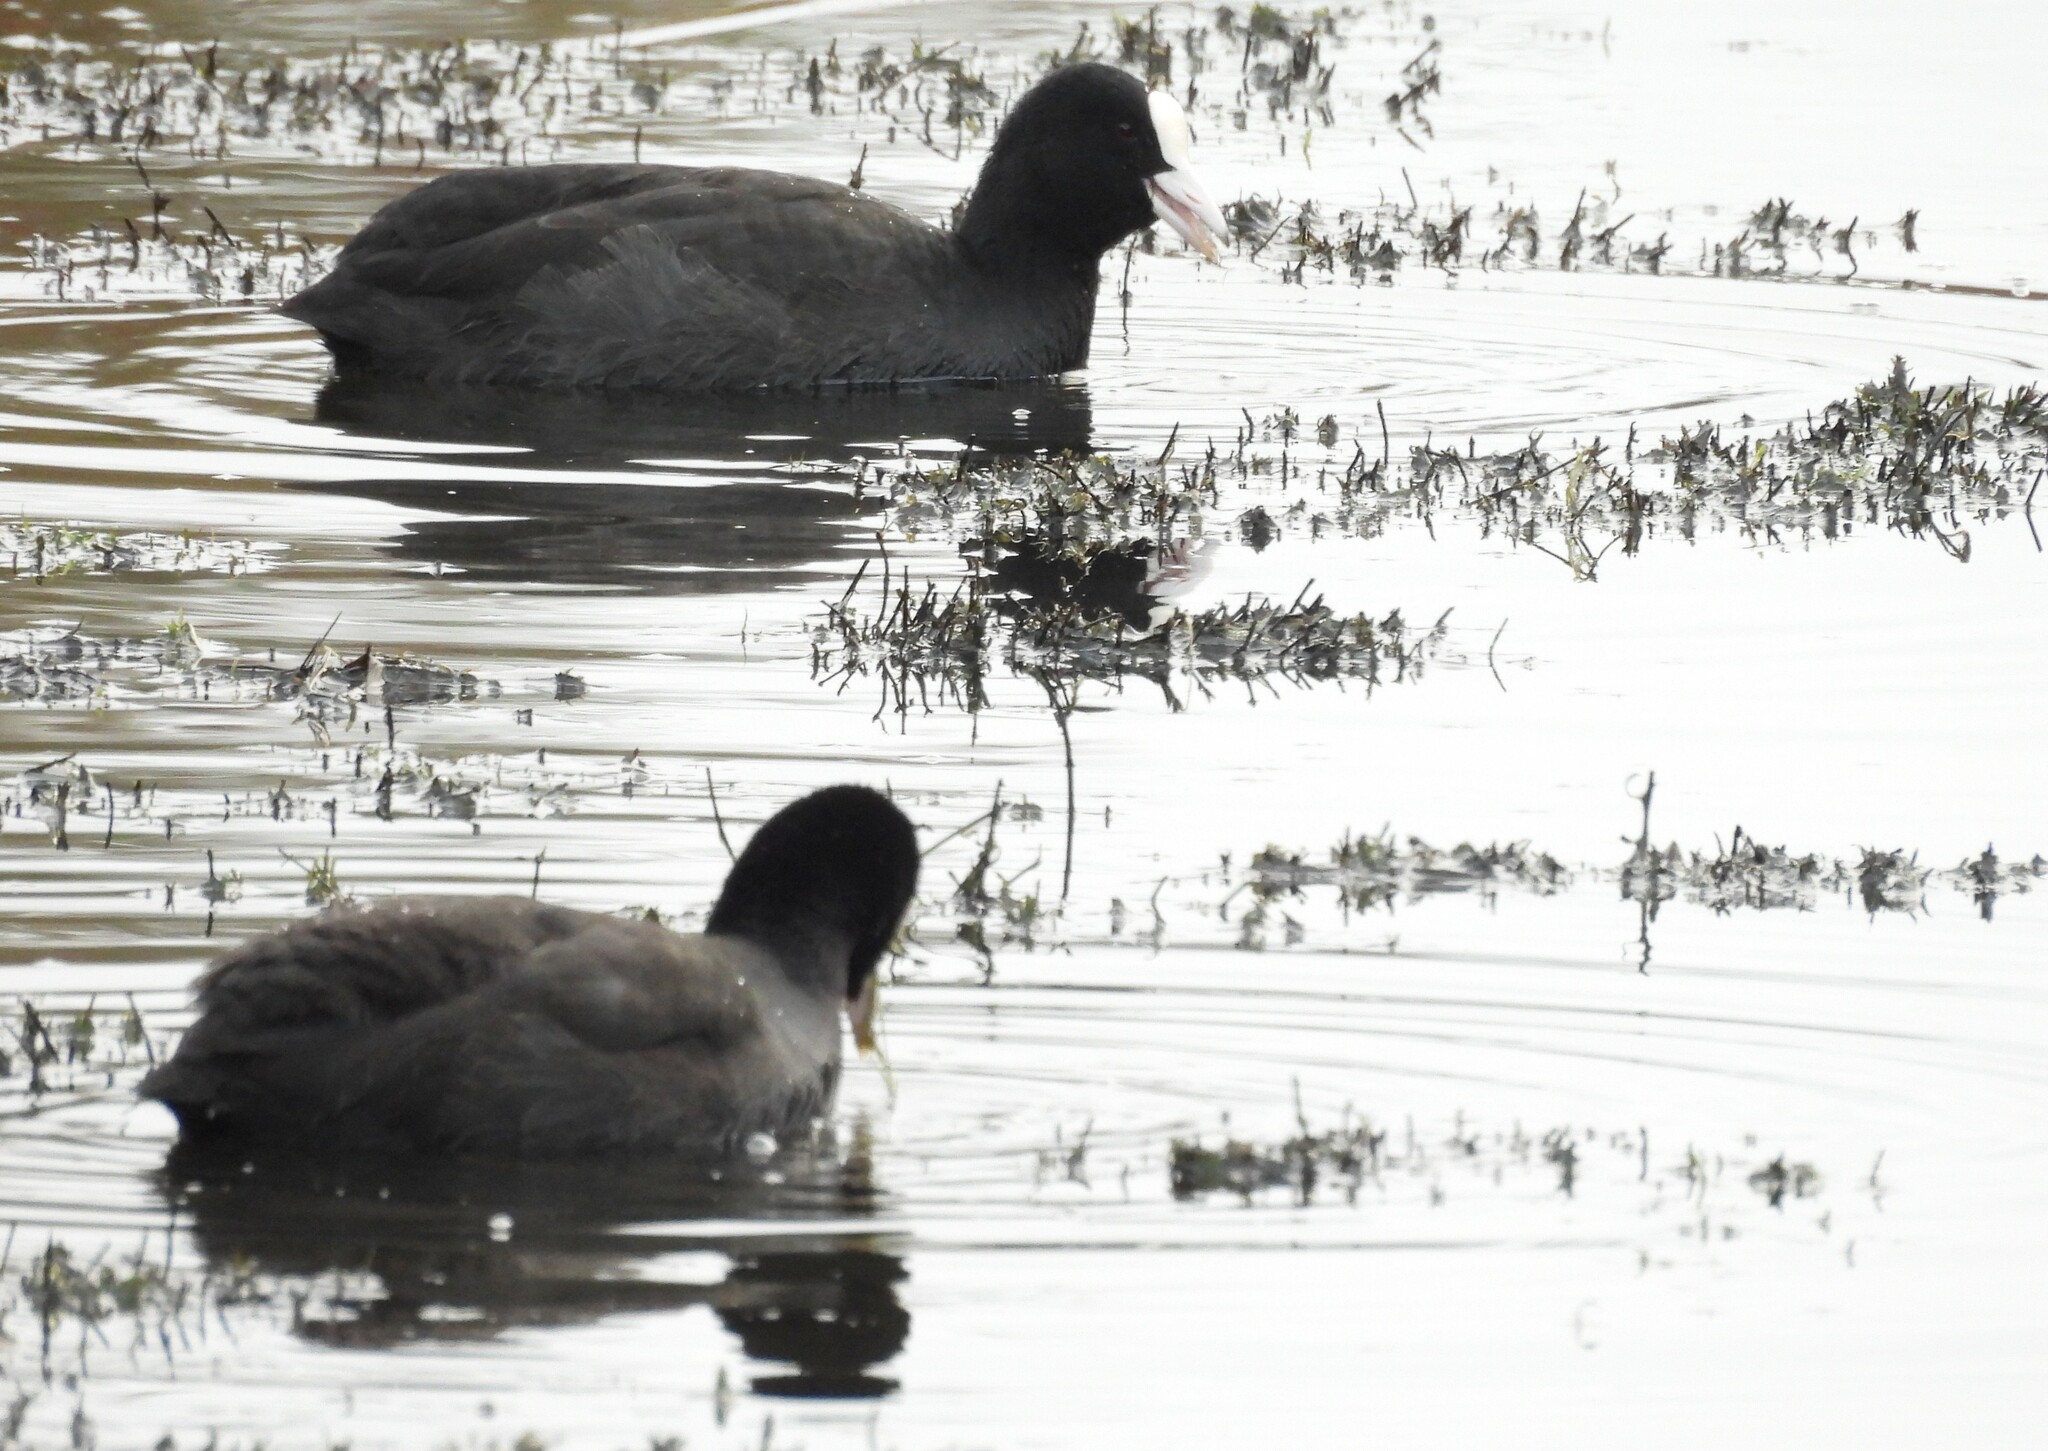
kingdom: Animalia
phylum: Chordata
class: Aves
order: Gruiformes
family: Rallidae
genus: Fulica
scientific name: Fulica atra
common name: Eurasian coot
